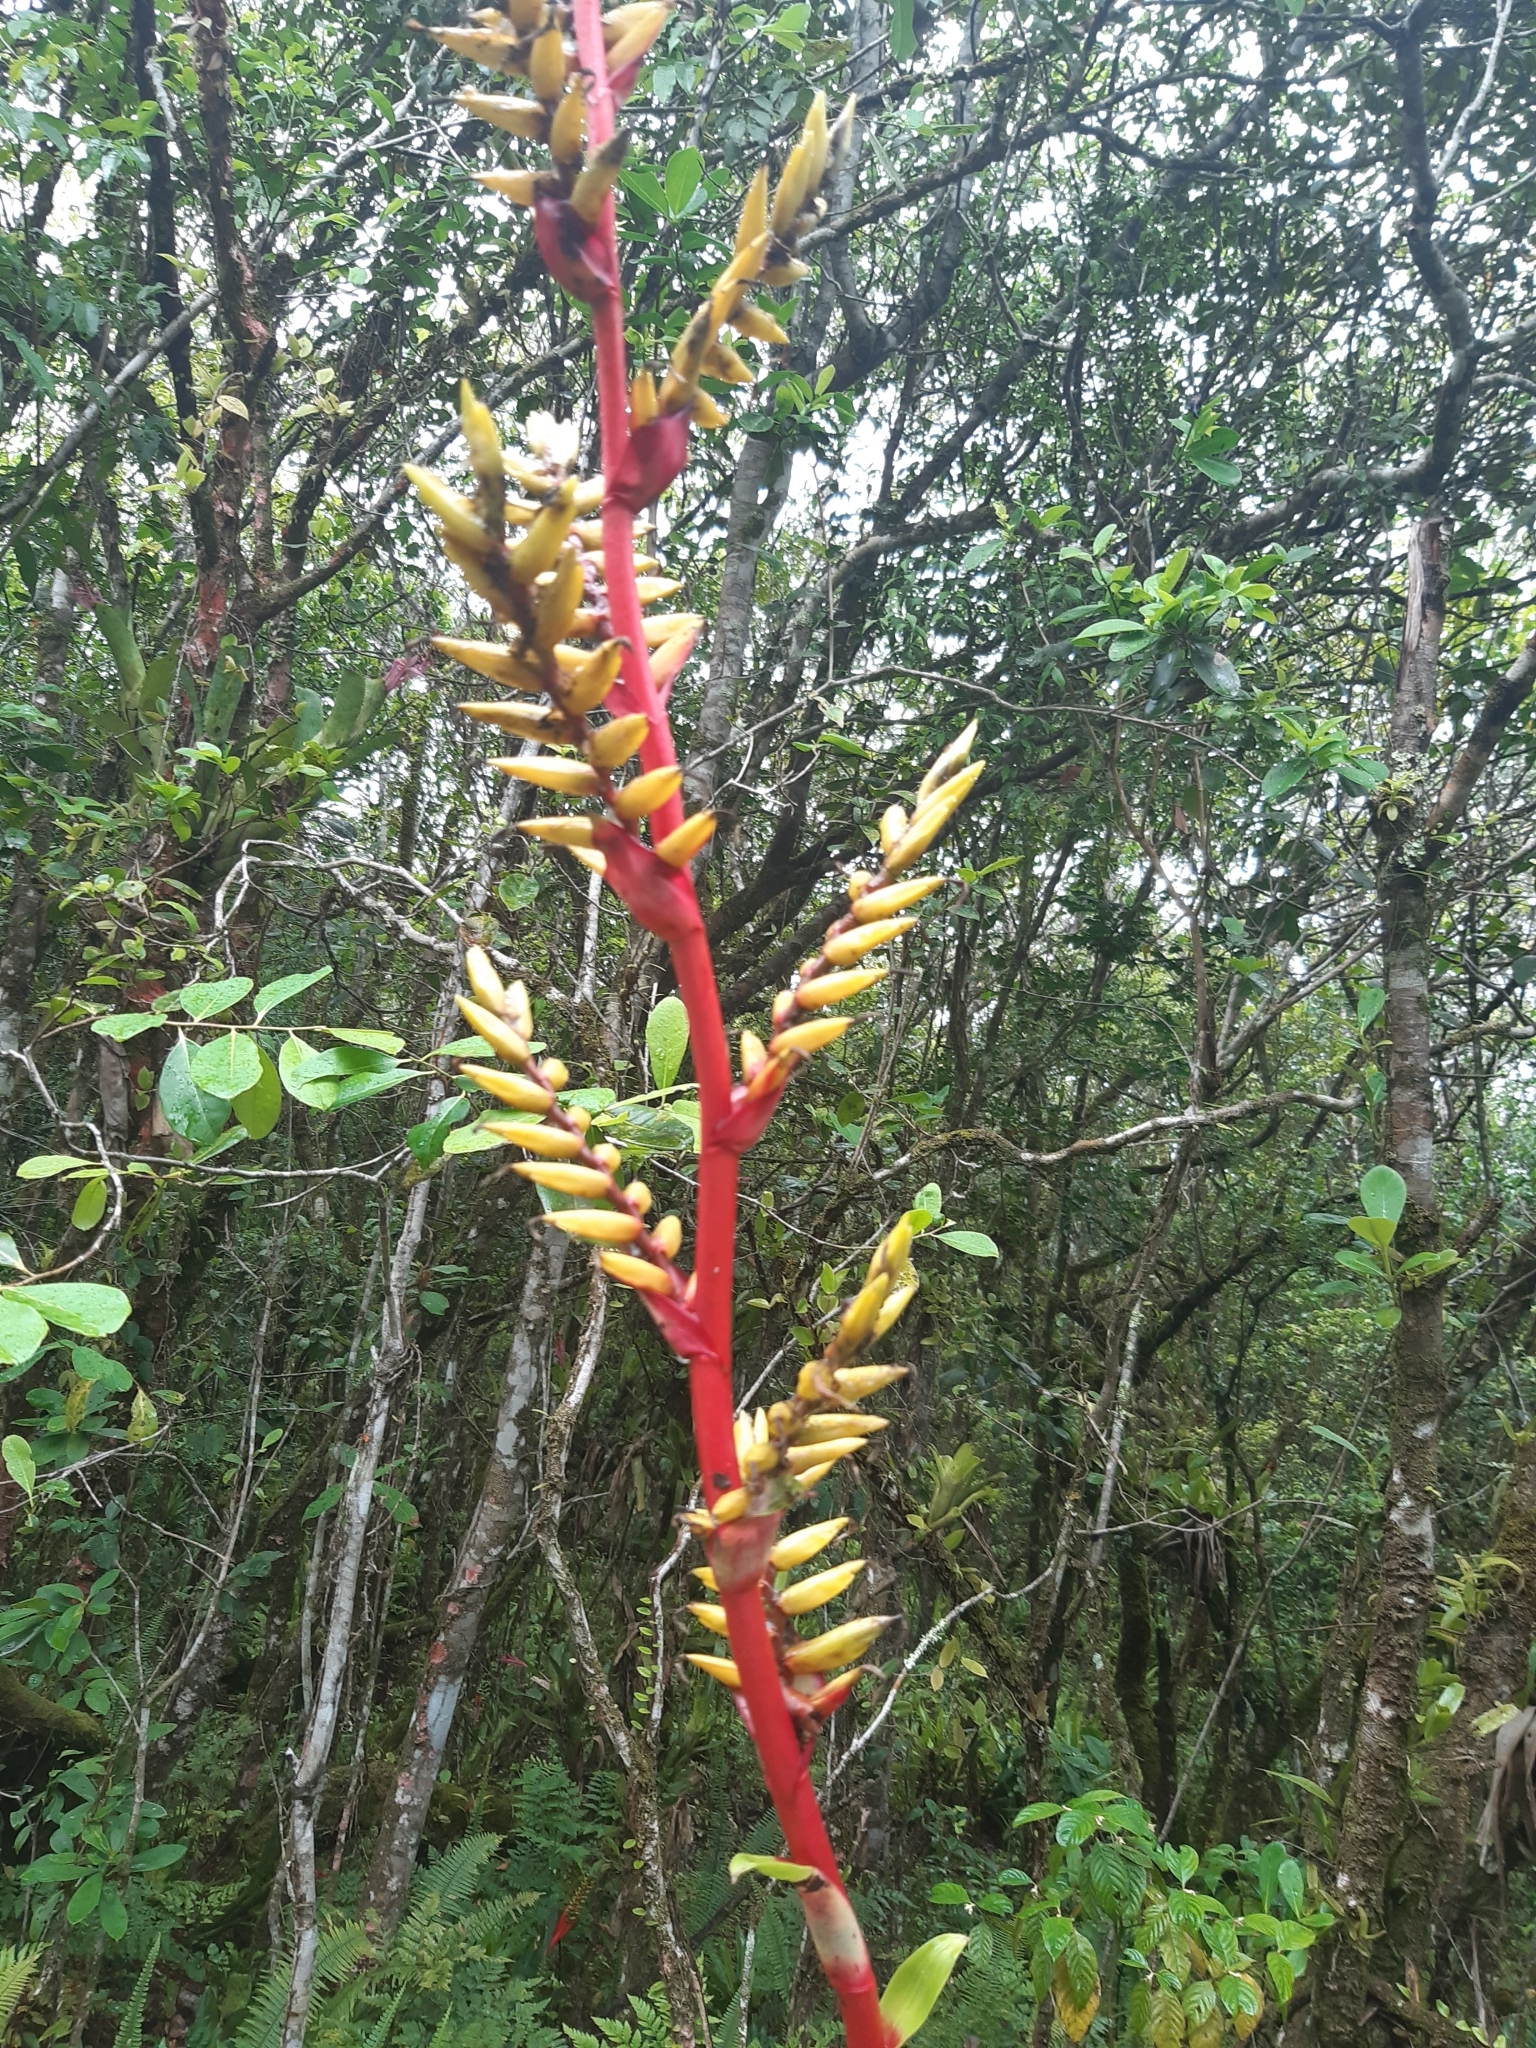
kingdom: Plantae
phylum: Tracheophyta
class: Liliopsida
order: Poales
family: Bromeliaceae
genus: Vriesea
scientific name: Vriesea friburgensis
